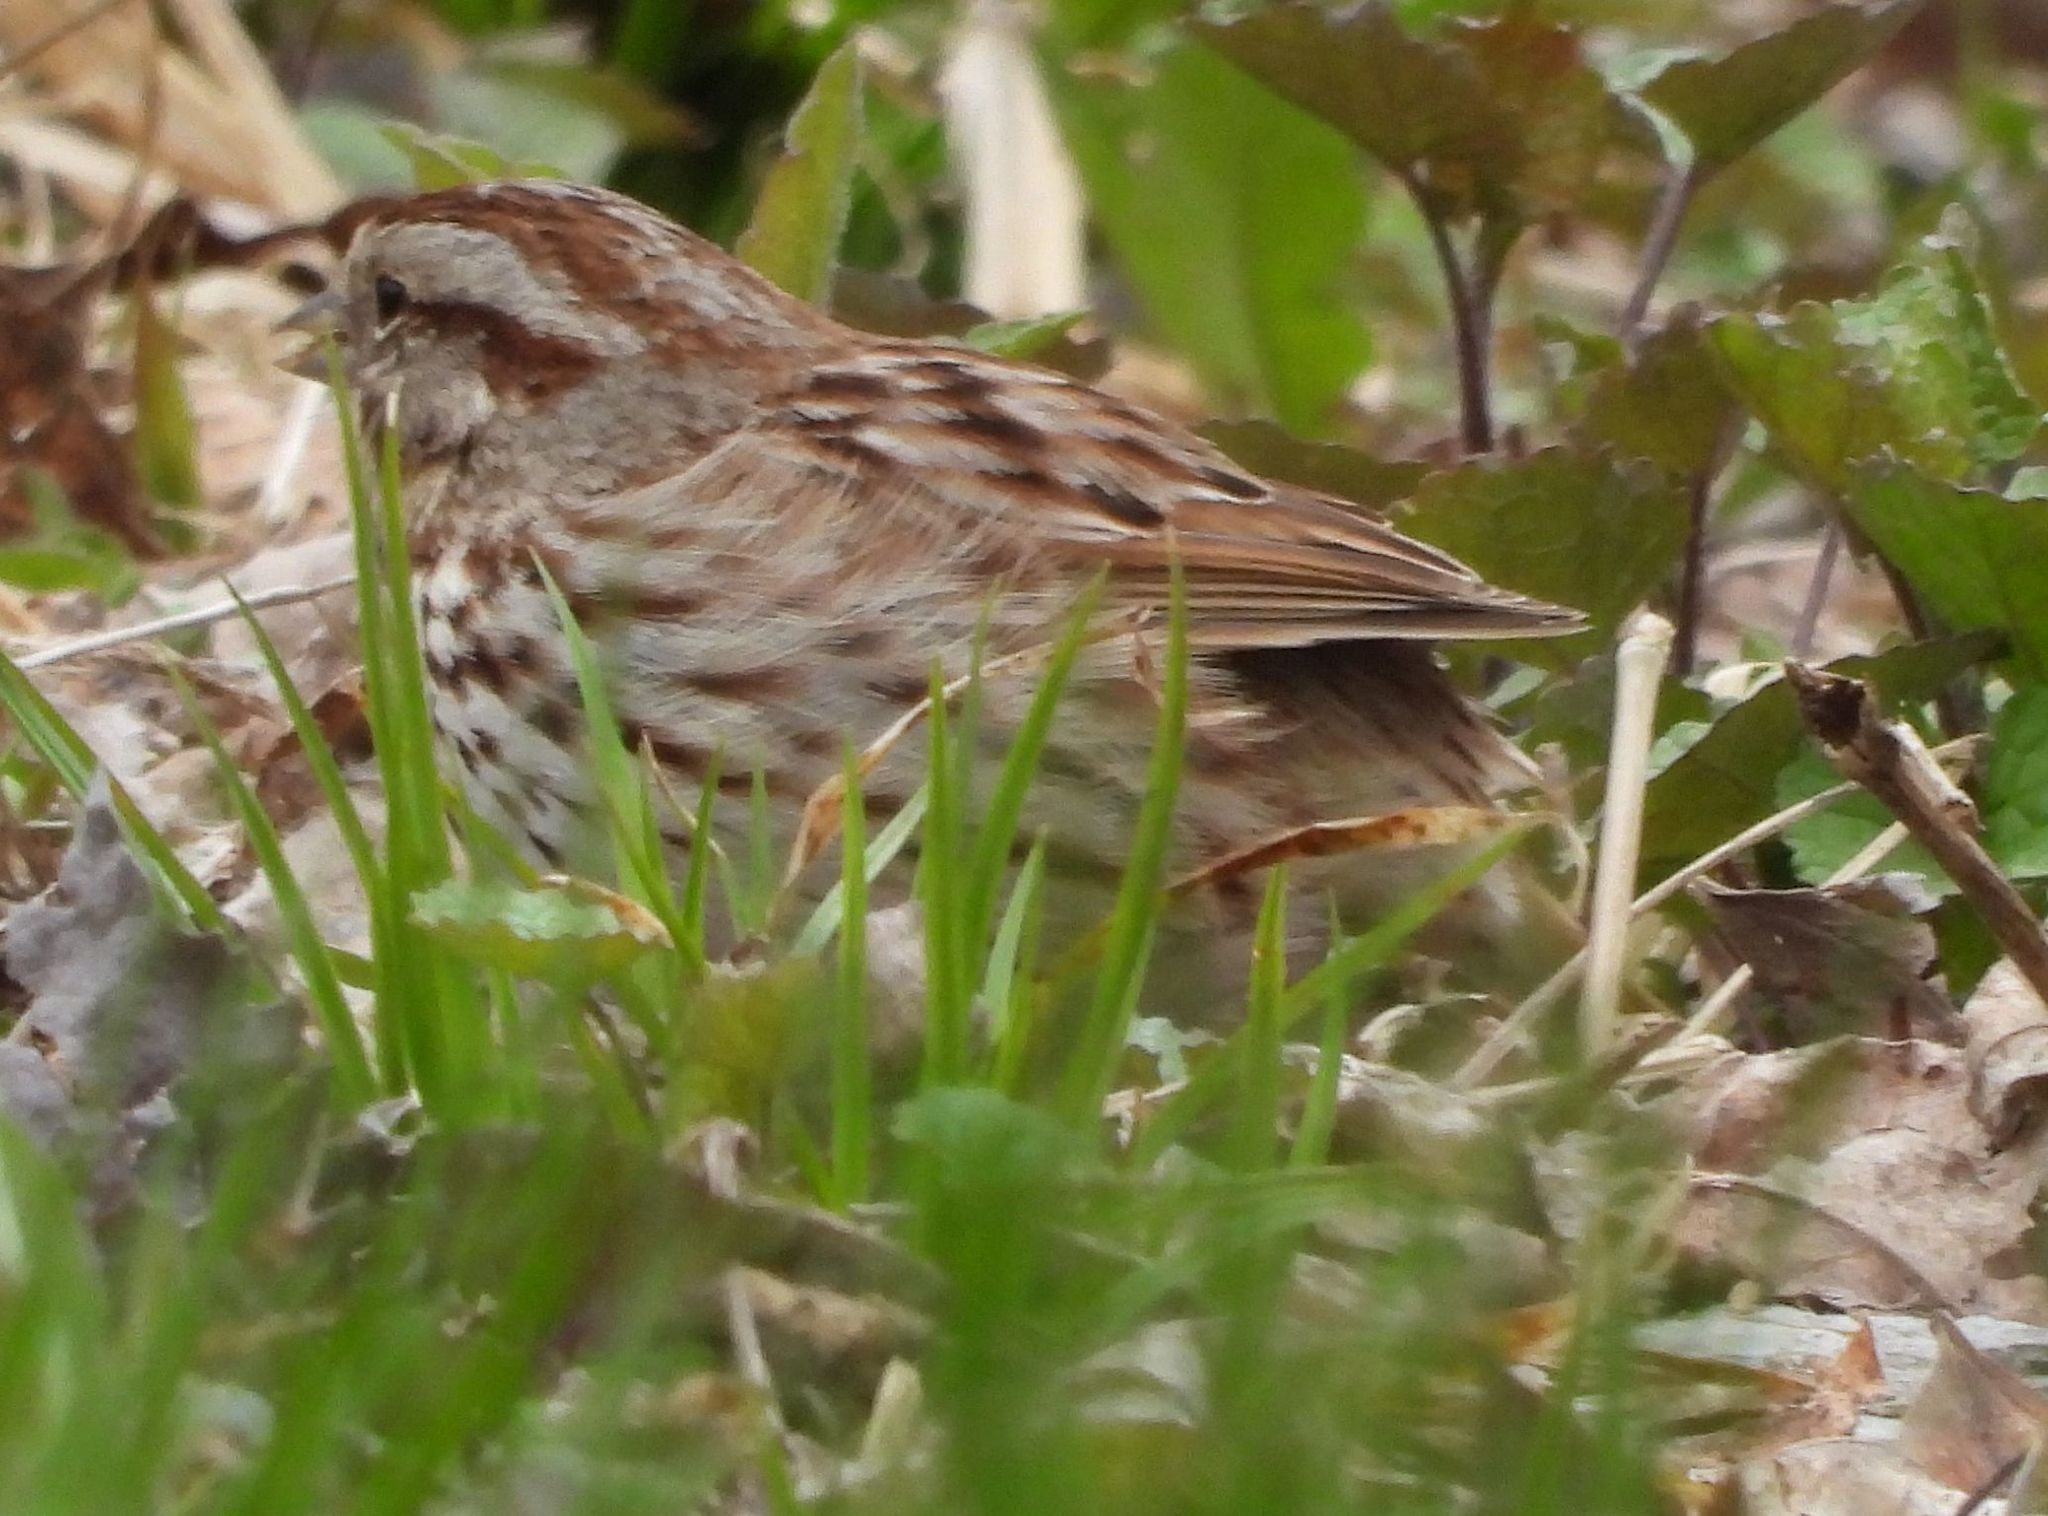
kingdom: Animalia
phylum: Chordata
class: Aves
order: Passeriformes
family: Passerellidae
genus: Melospiza
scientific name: Melospiza melodia
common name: Song sparrow
